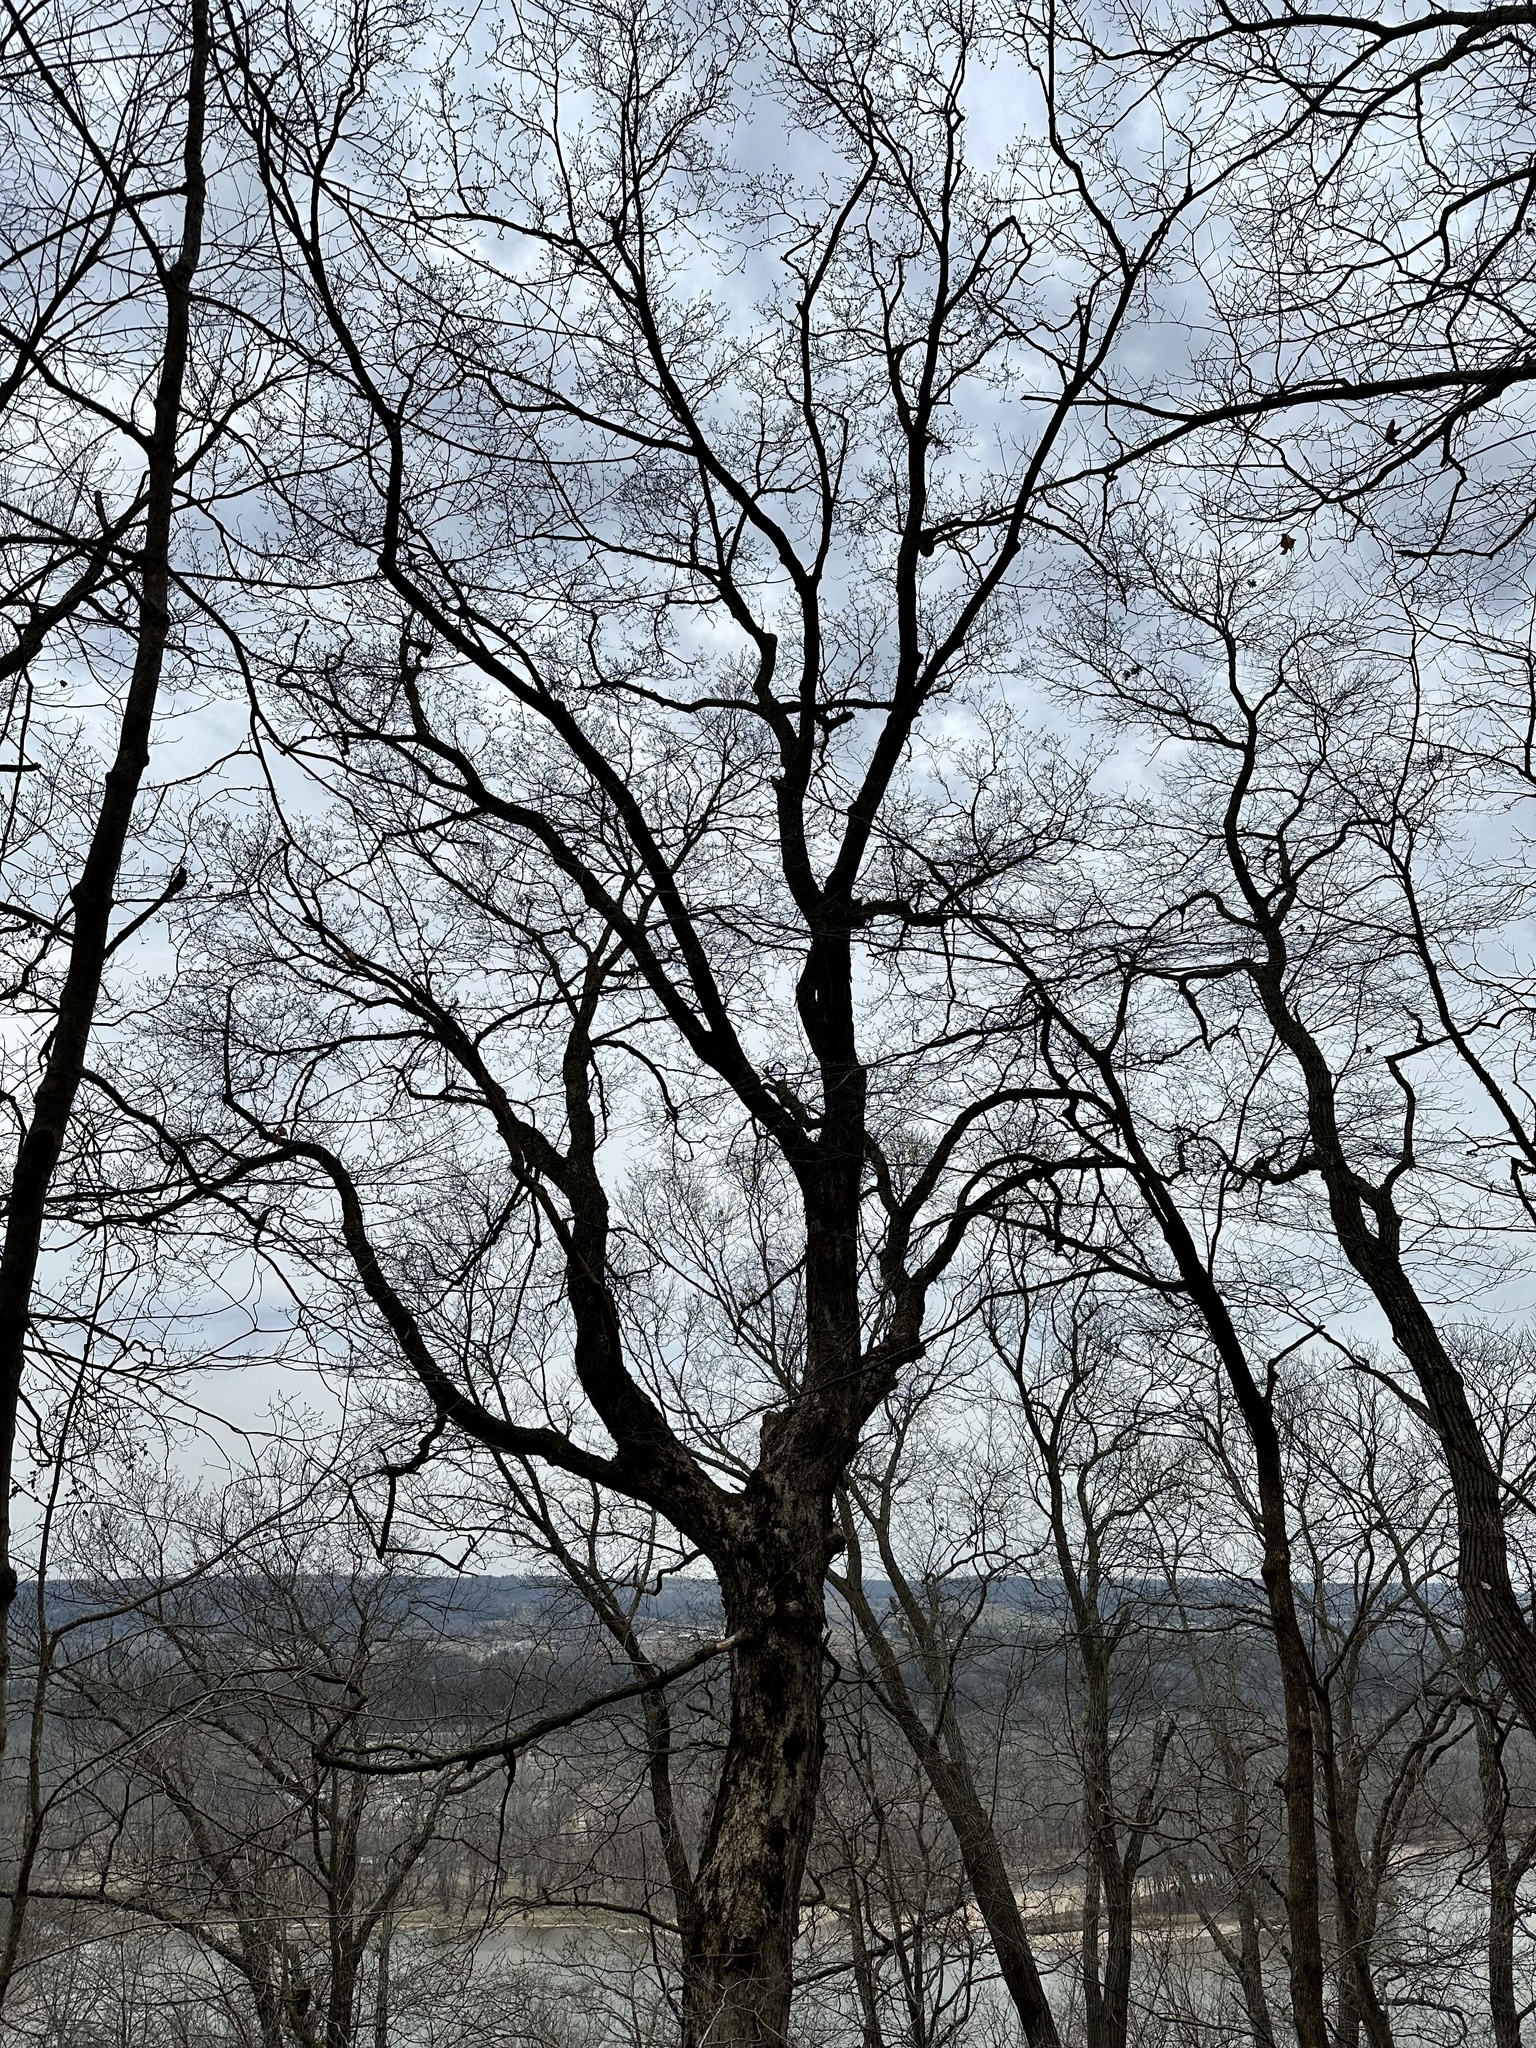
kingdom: Plantae
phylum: Tracheophyta
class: Magnoliopsida
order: Sapindales
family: Sapindaceae
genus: Acer
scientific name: Acer saccharum
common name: Sugar maple
